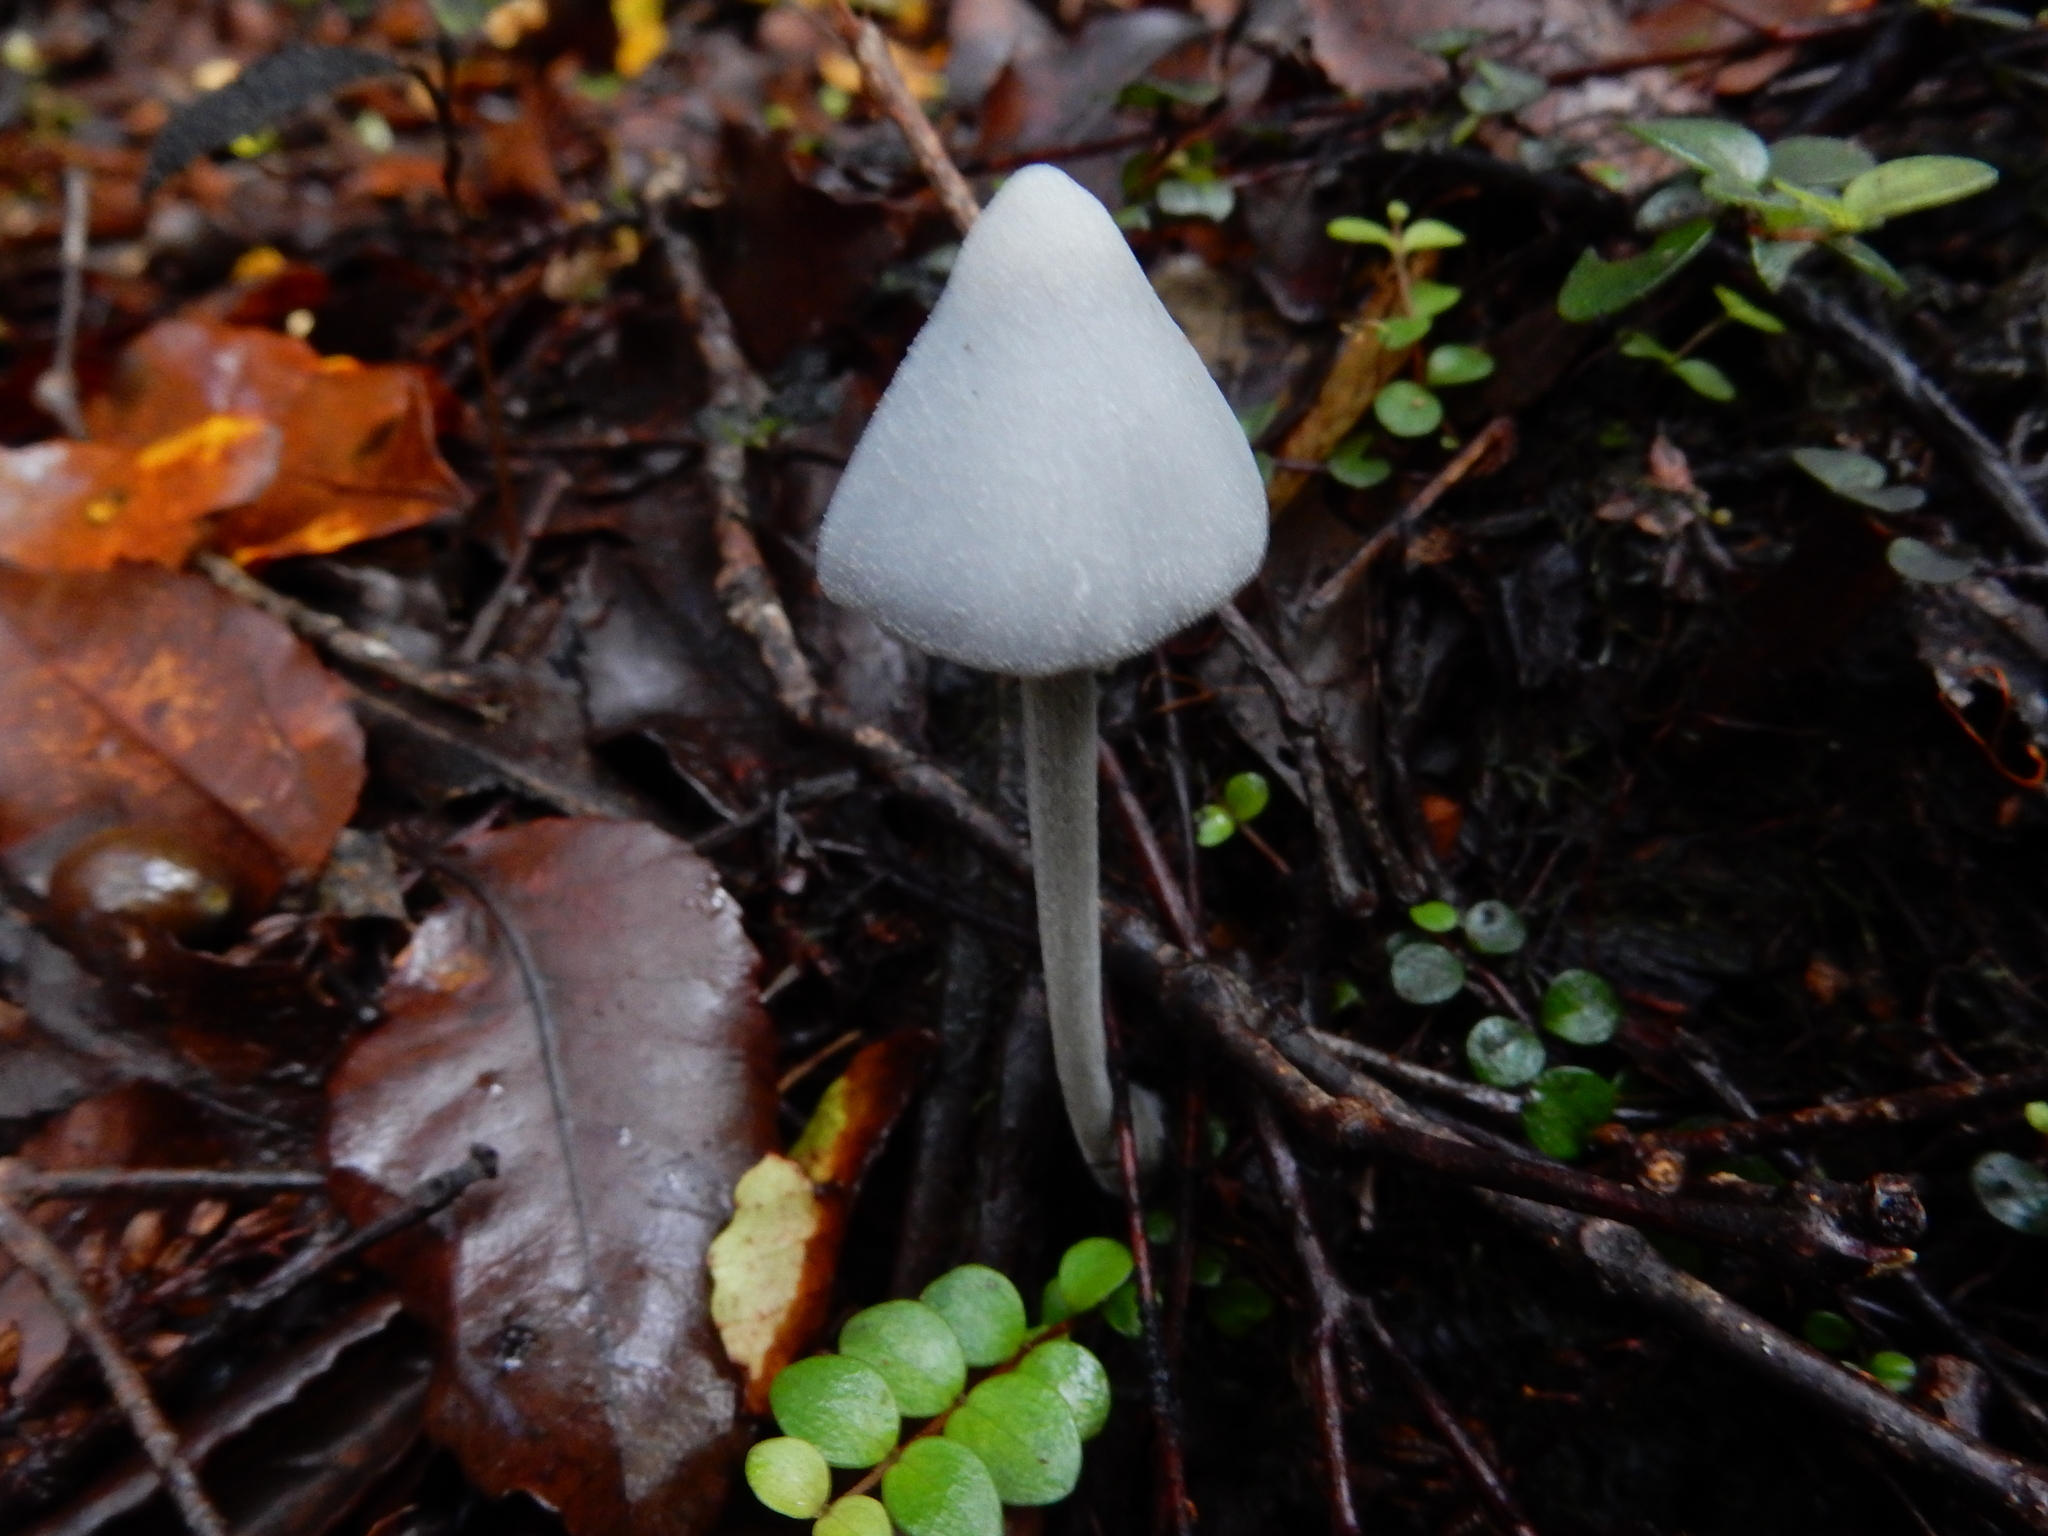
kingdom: Fungi
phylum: Basidiomycota
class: Agaricomycetes
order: Agaricales
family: Entolomataceae
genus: Entoloma
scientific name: Entoloma canoconicum
